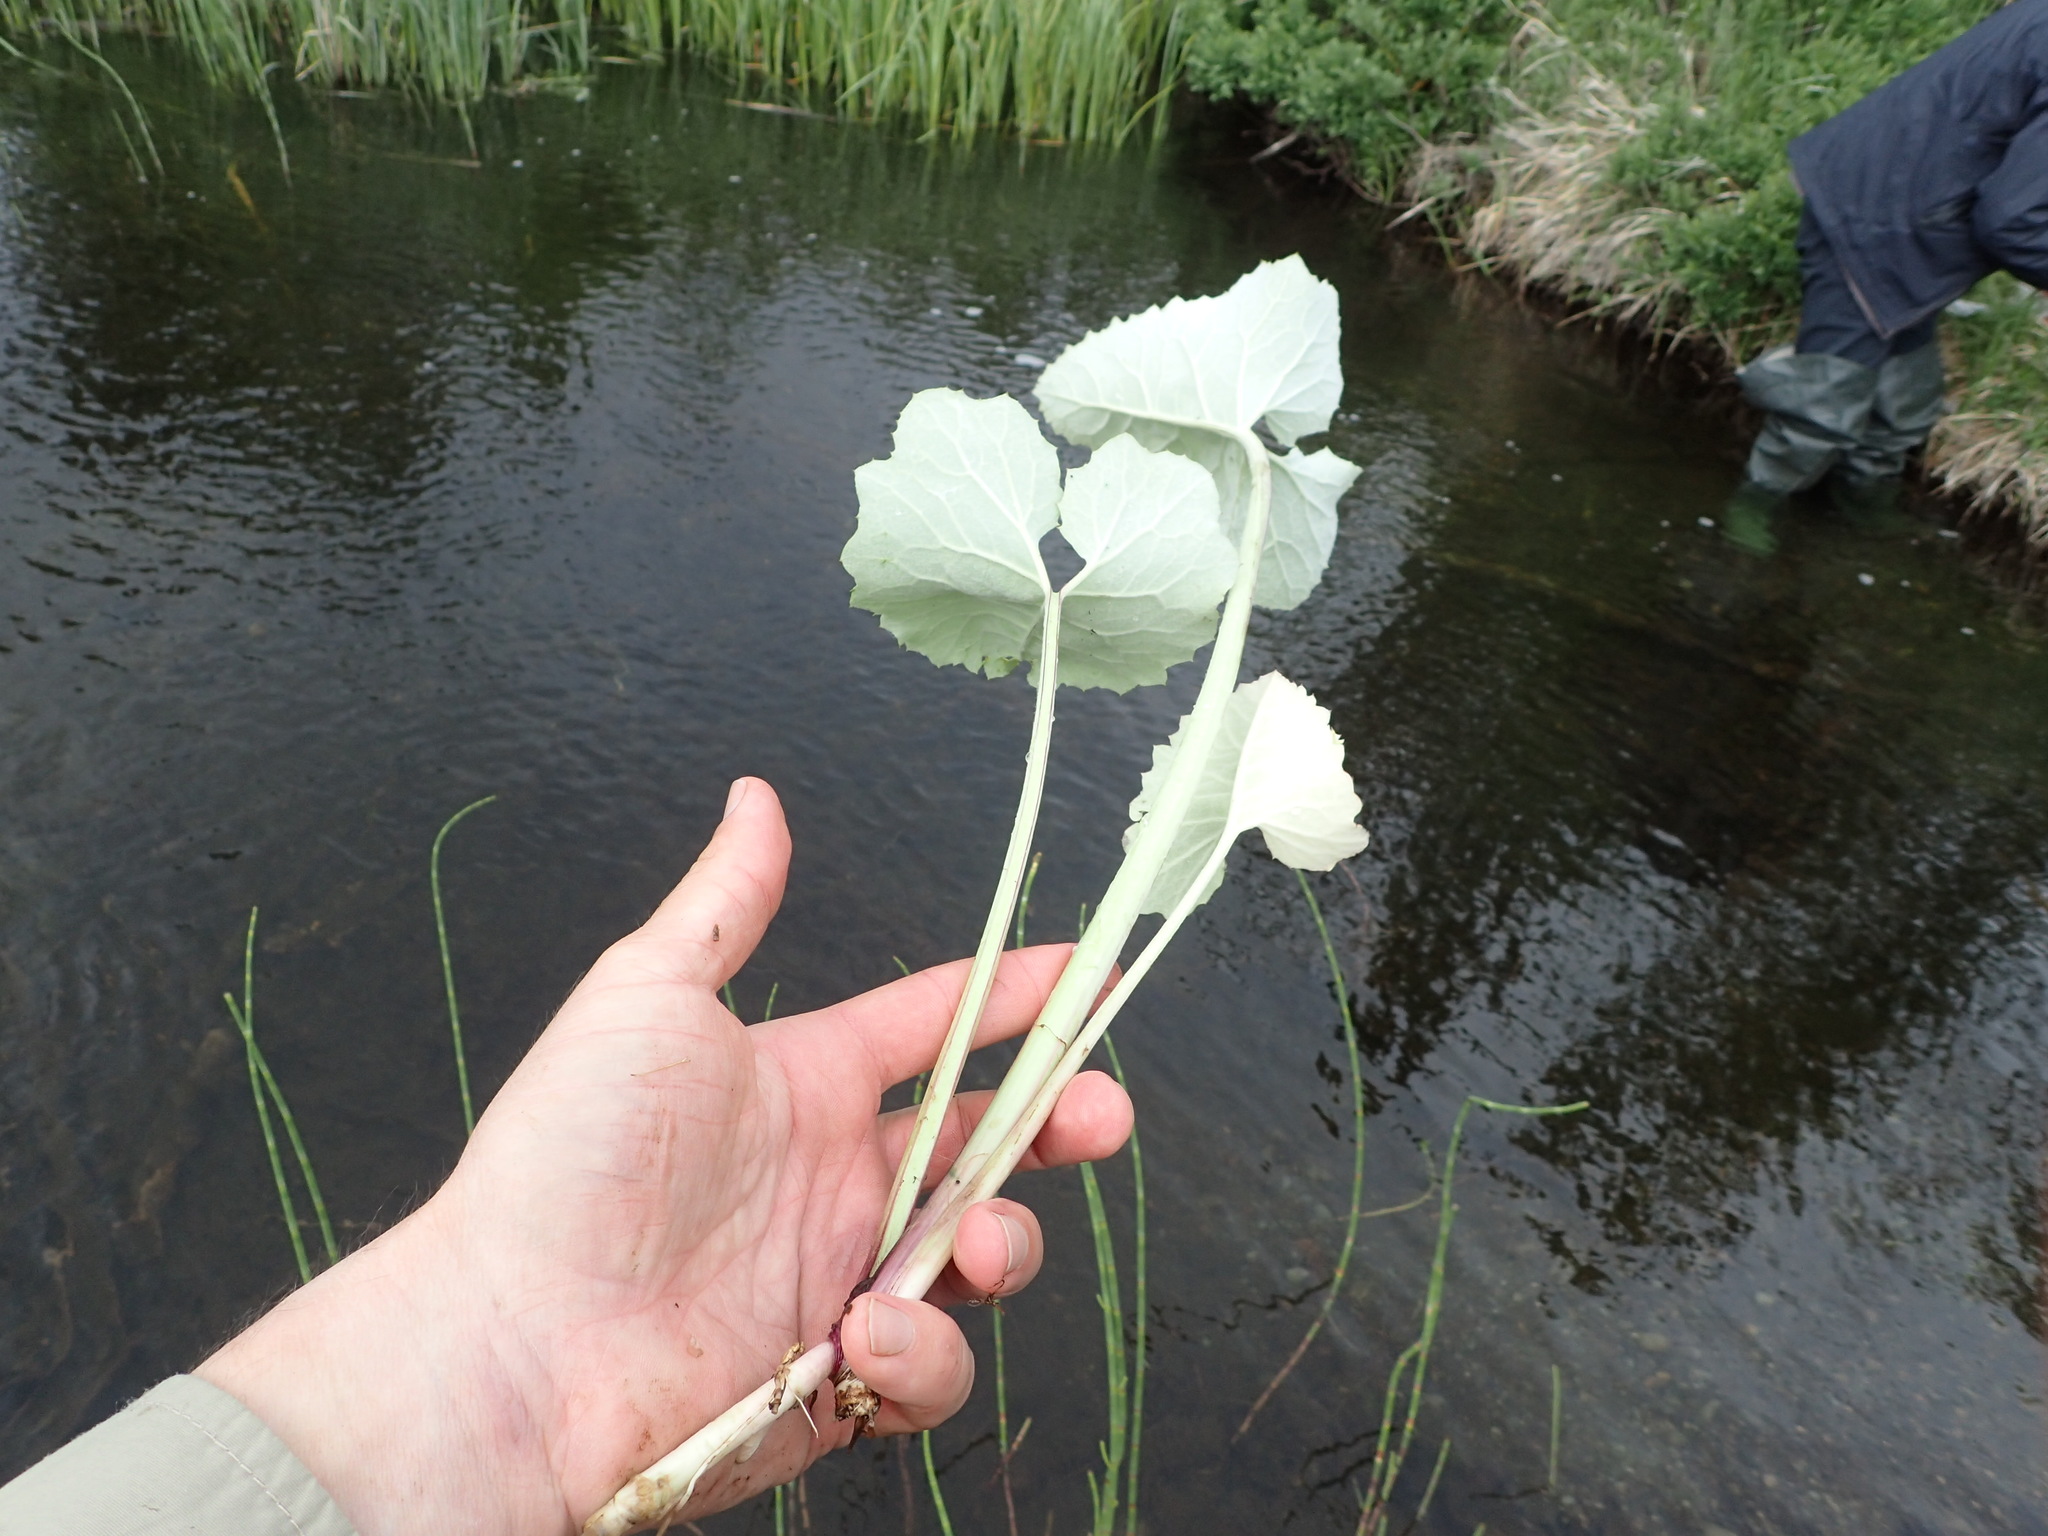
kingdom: Plantae
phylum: Tracheophyta
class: Magnoliopsida
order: Asterales
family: Asteraceae
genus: Petasites
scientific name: Petasites frigidus
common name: Arctic butterbur
